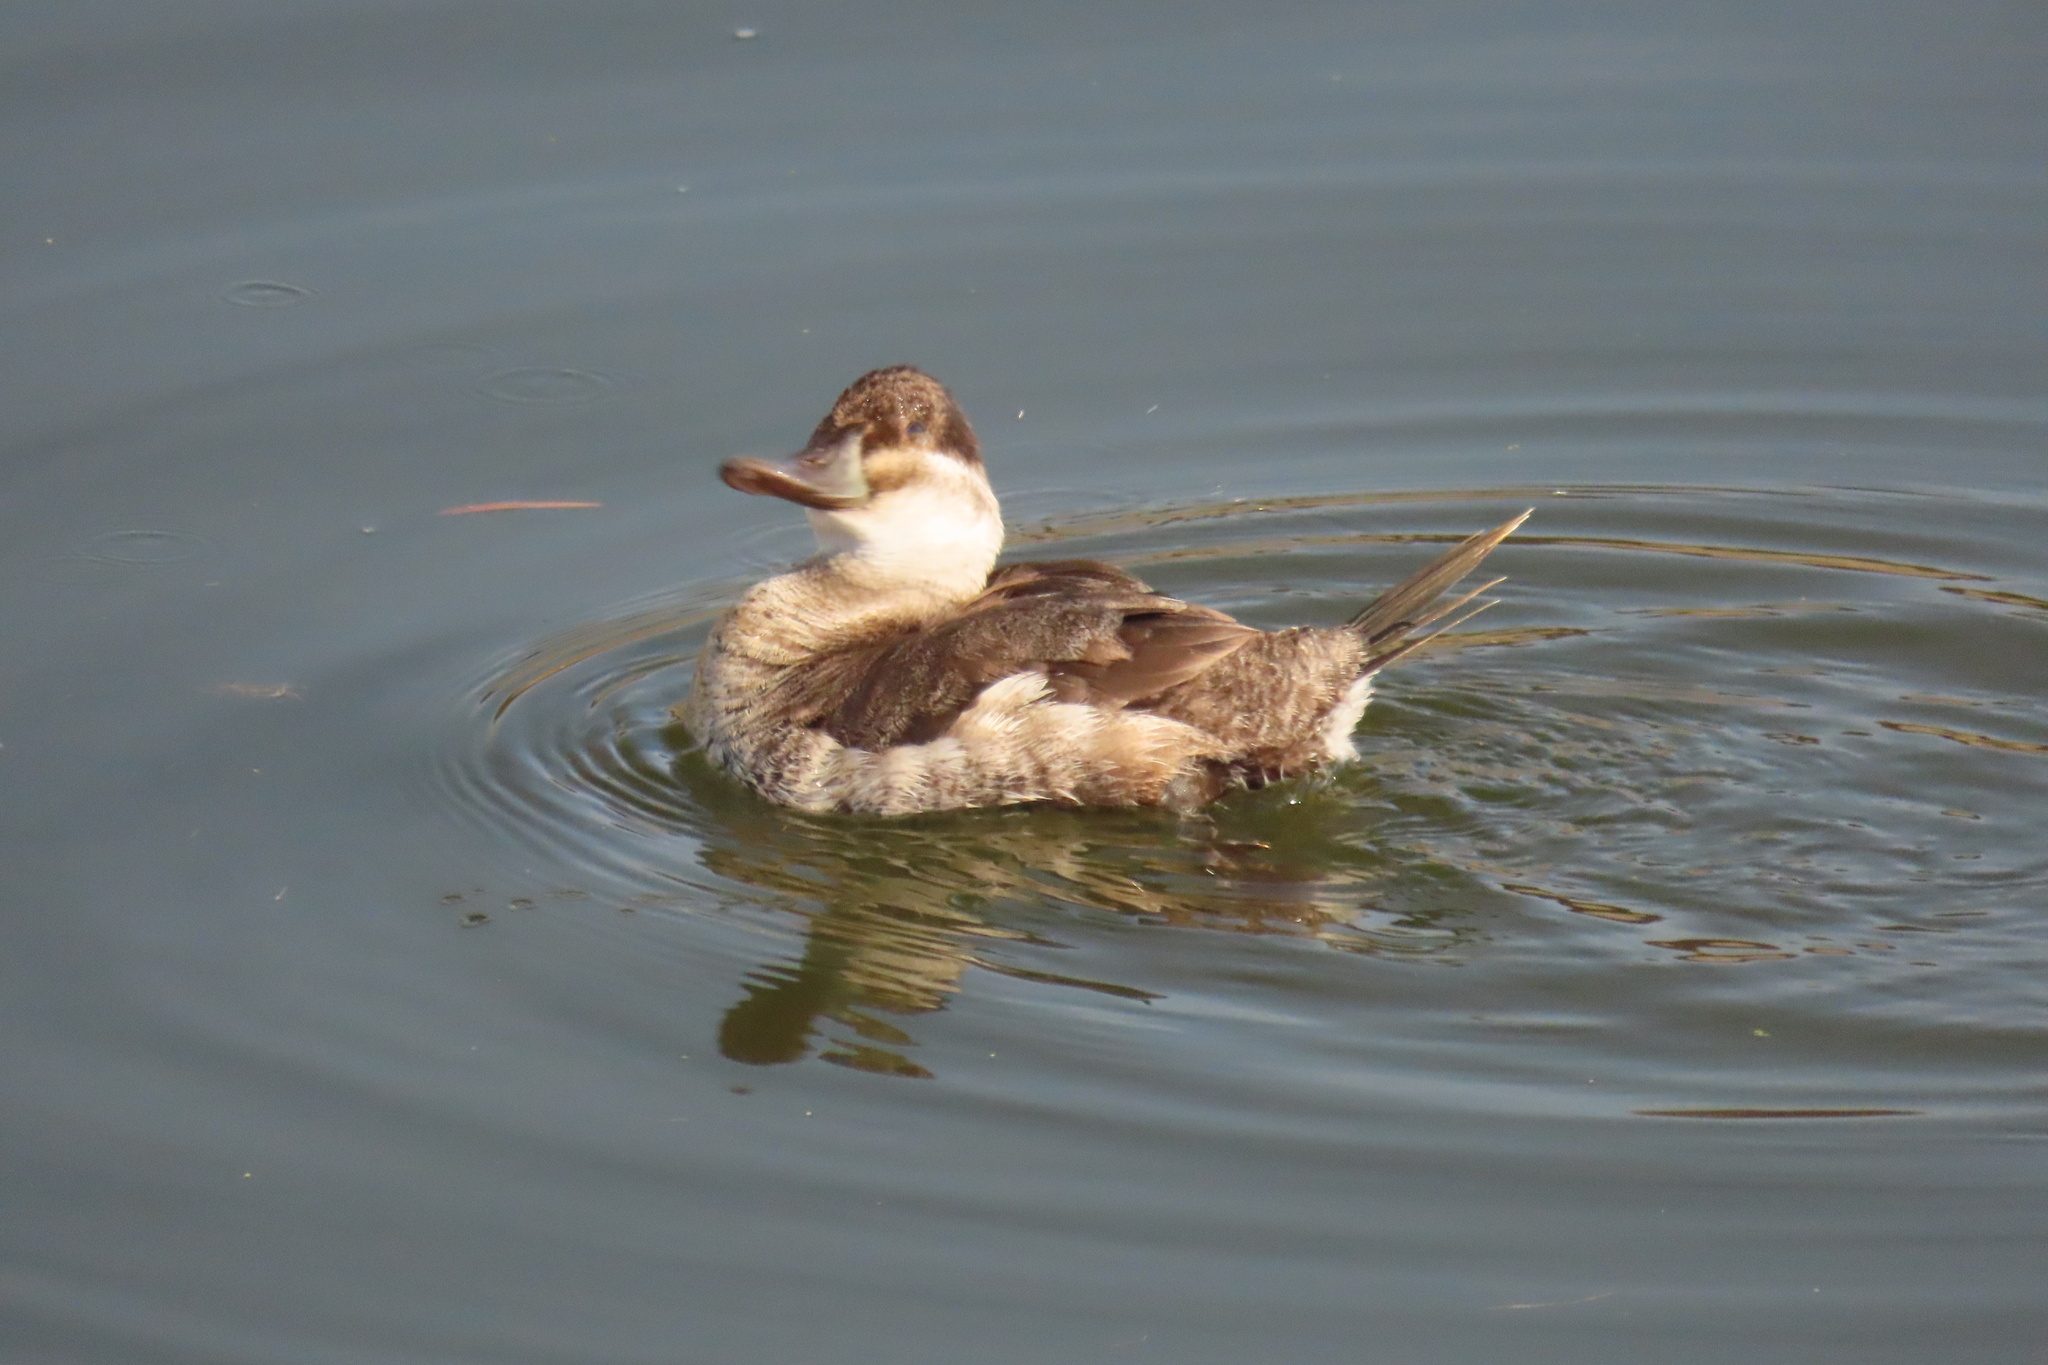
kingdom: Animalia
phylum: Chordata
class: Aves
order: Anseriformes
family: Anatidae
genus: Oxyura
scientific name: Oxyura jamaicensis
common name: Ruddy duck
